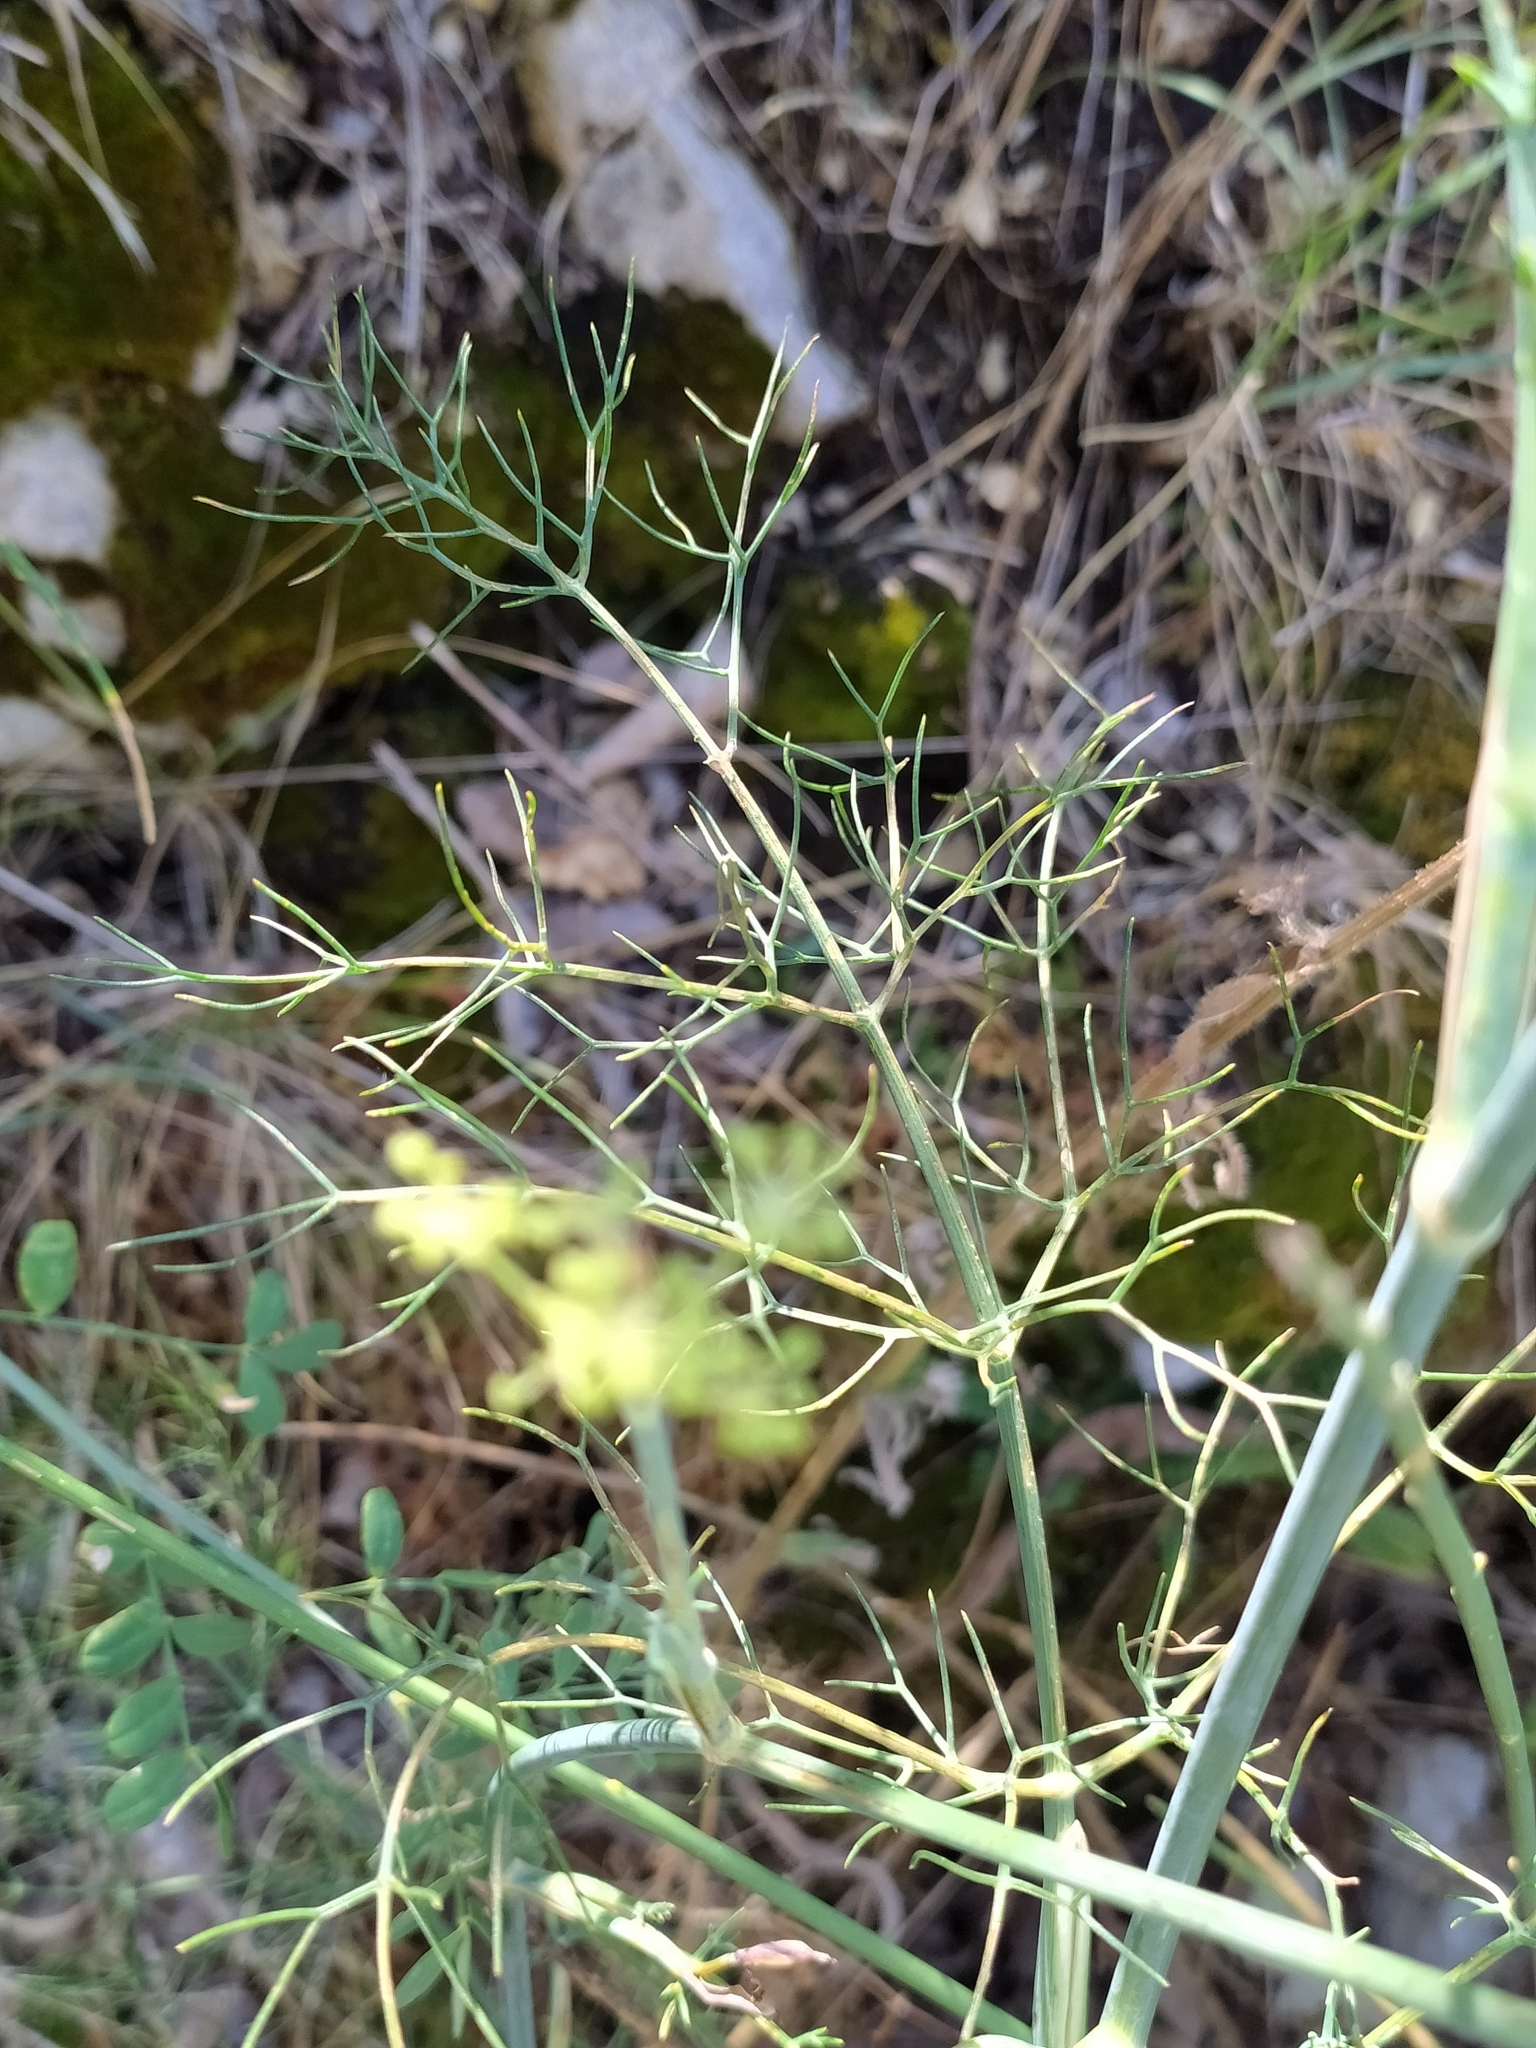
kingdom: Plantae
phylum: Tracheophyta
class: Magnoliopsida
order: Apiales
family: Apiaceae
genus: Foeniculum
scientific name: Foeniculum vulgare
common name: Fennel
